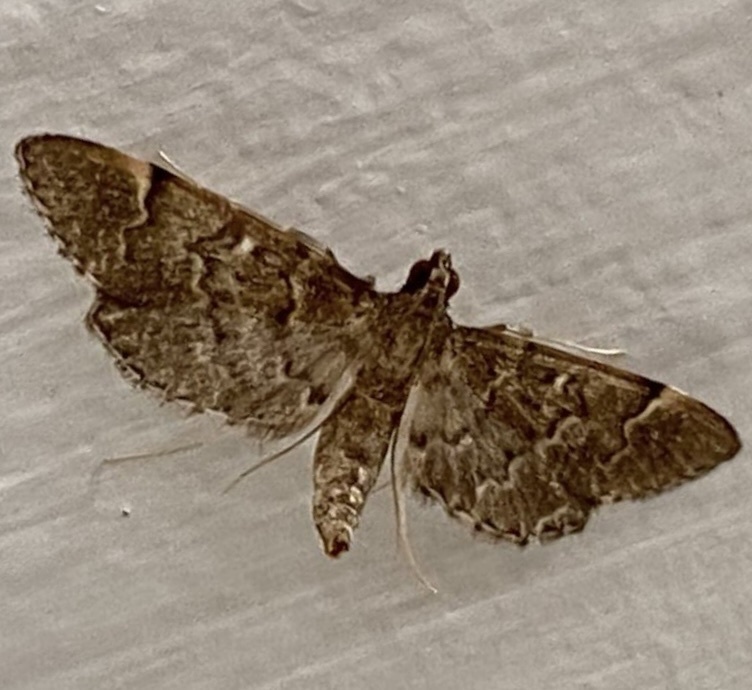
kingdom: Animalia
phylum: Arthropoda
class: Insecta
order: Lepidoptera
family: Crambidae
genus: Duponchelia
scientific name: Duponchelia lanceolalis
